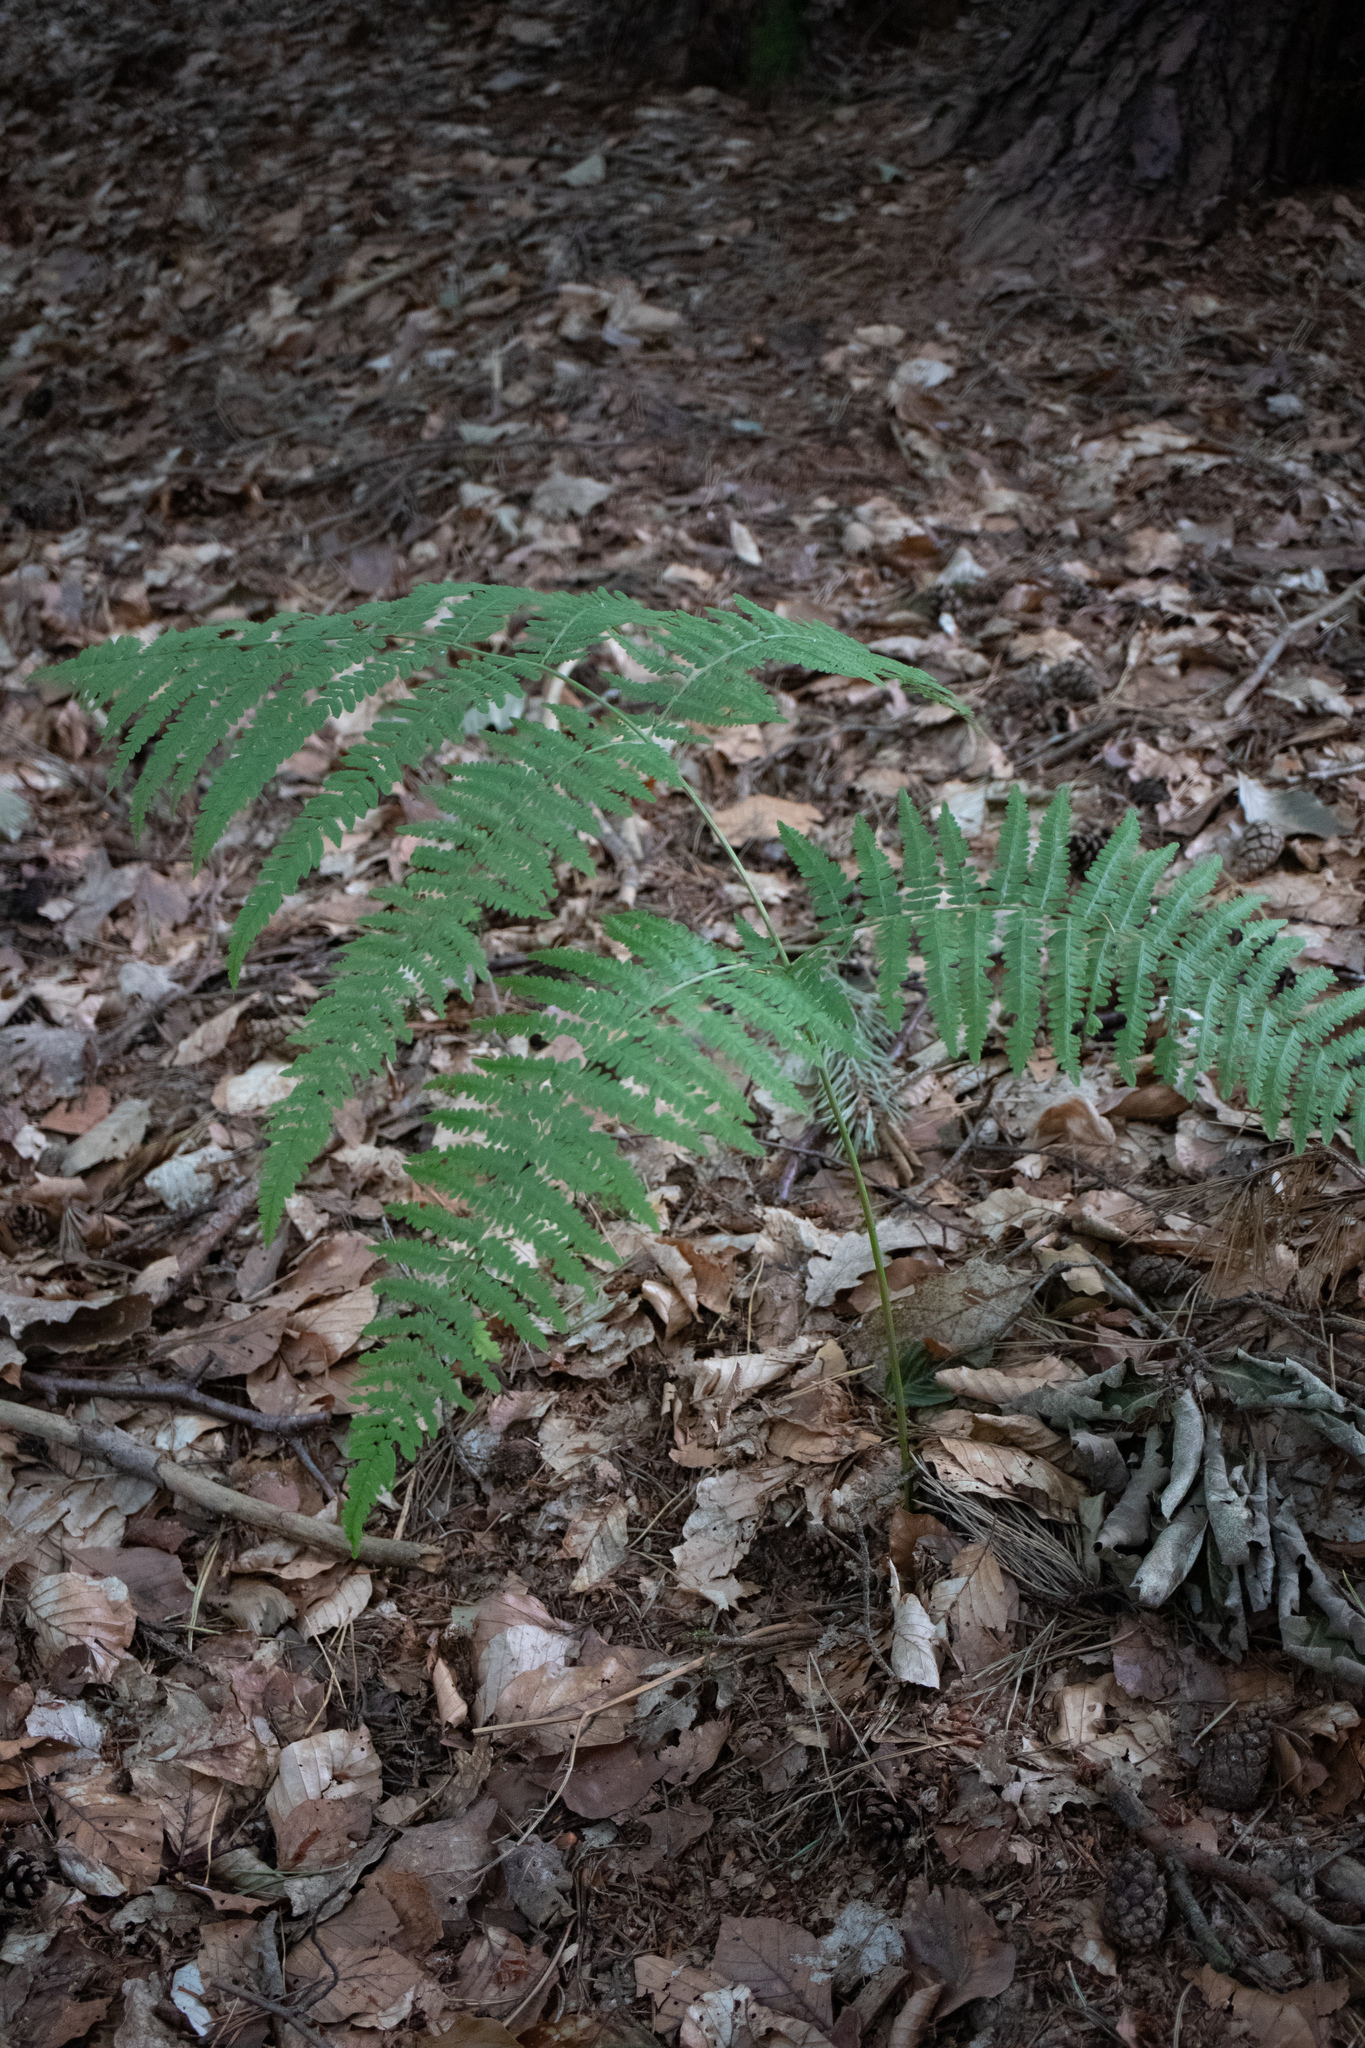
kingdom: Plantae
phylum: Tracheophyta
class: Polypodiopsida
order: Polypodiales
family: Dennstaedtiaceae
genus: Pteridium
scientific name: Pteridium aquilinum
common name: Bracken
